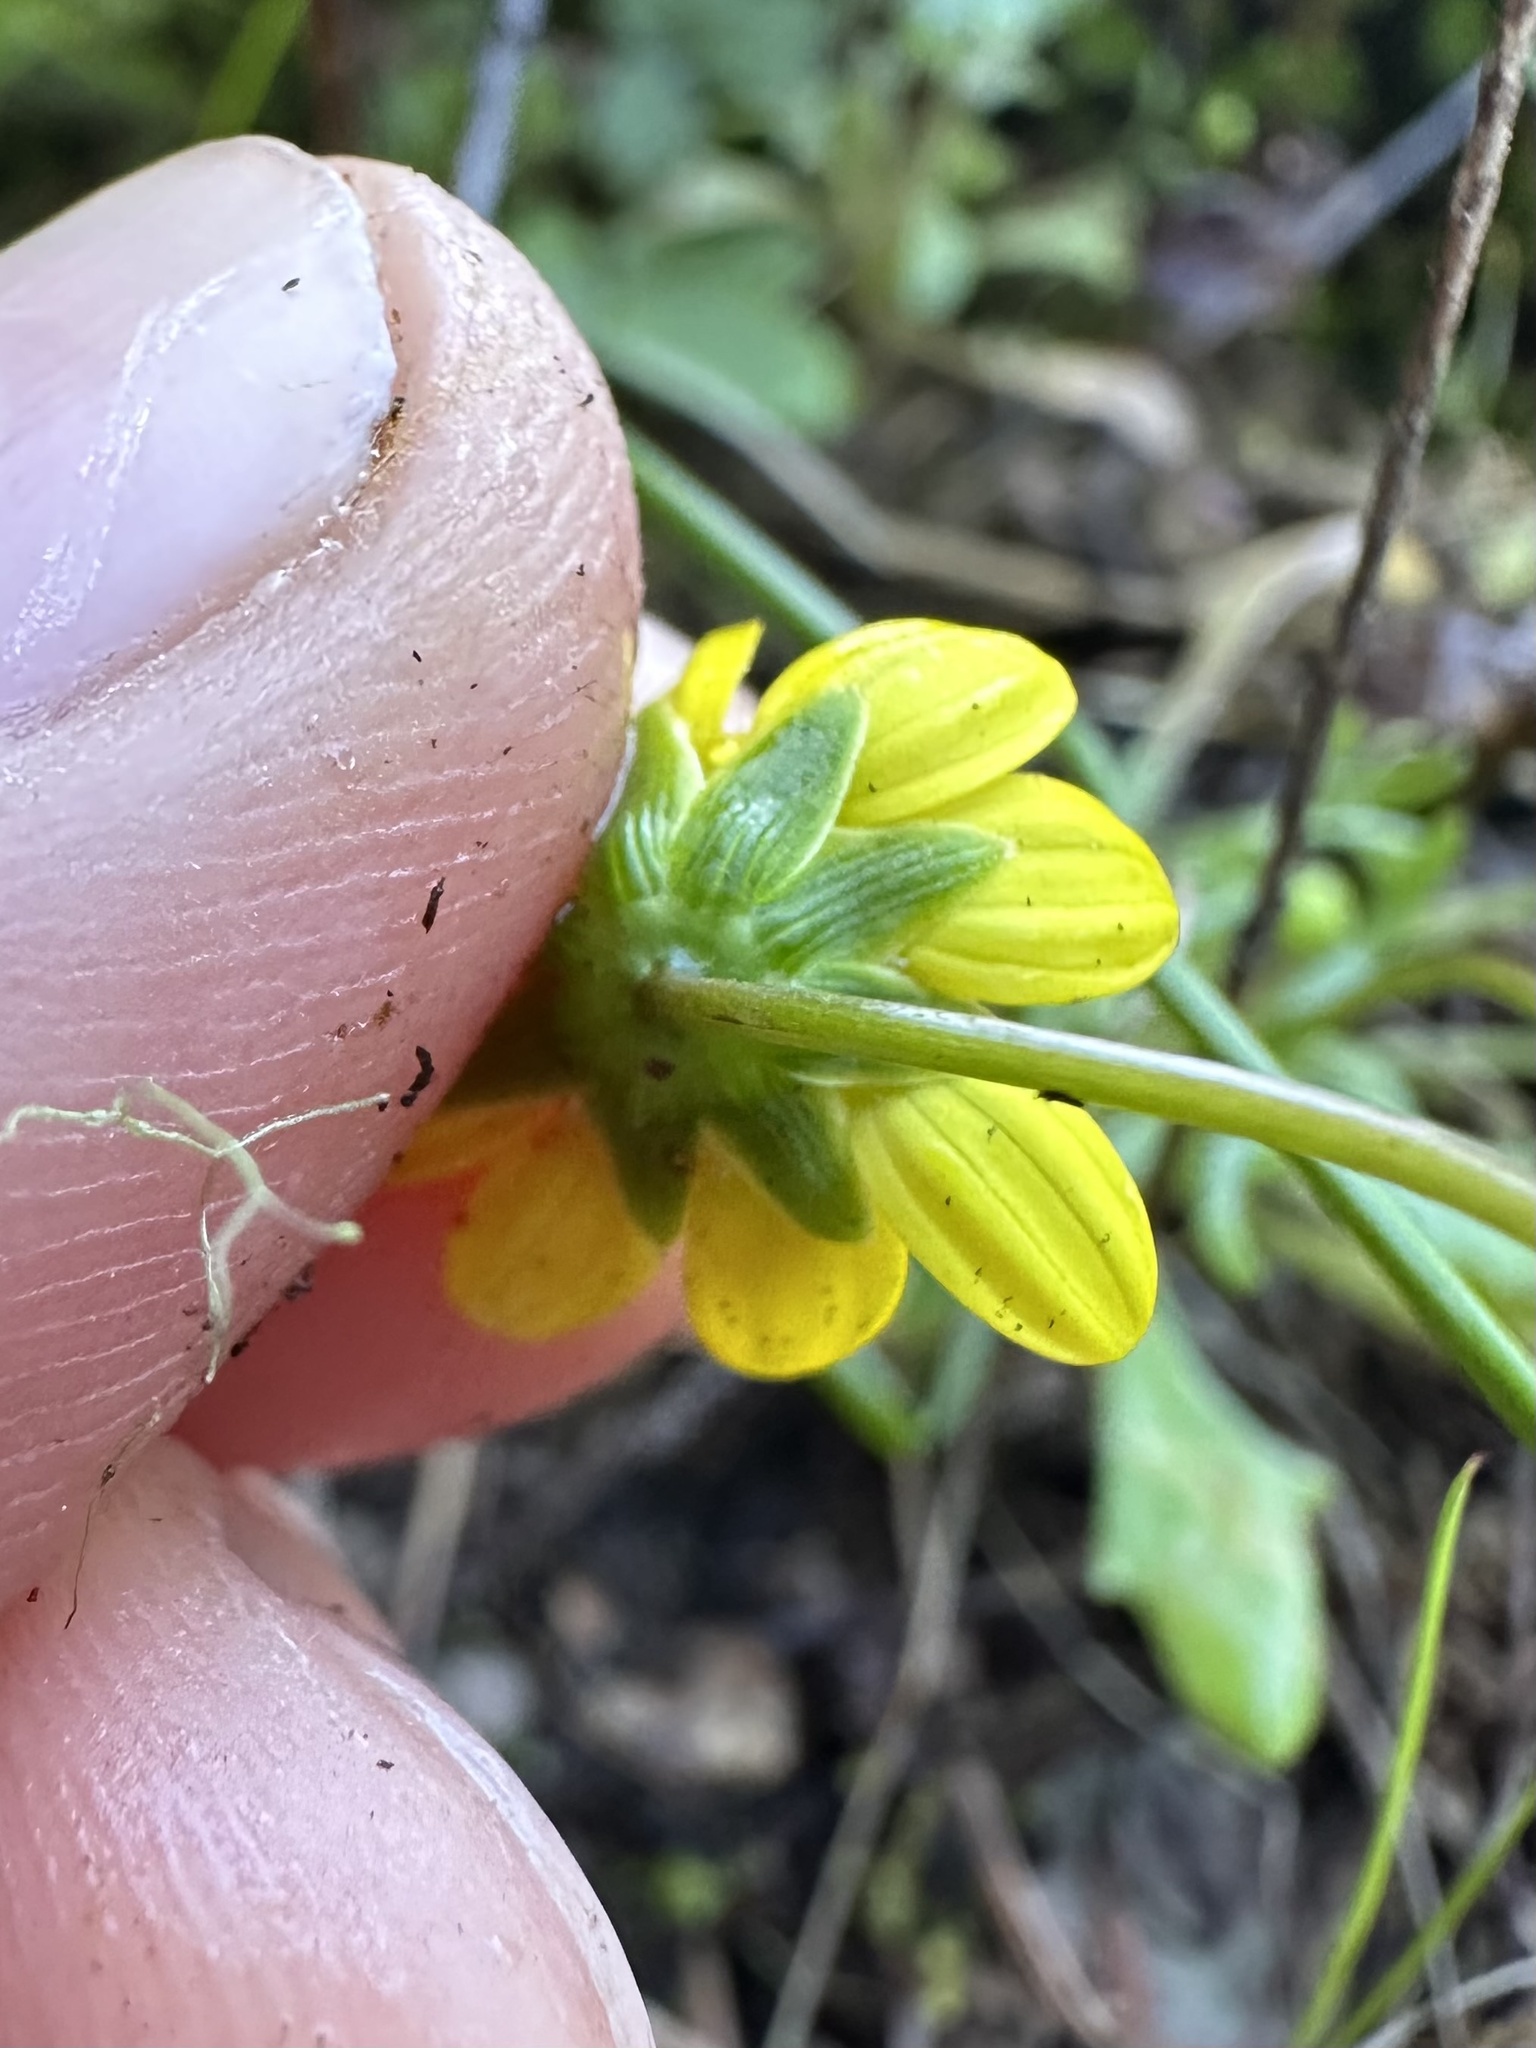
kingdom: Plantae
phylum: Tracheophyta
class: Magnoliopsida
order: Asterales
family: Asteraceae
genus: Crocidium
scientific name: Crocidium multicaule
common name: Common spring gold
